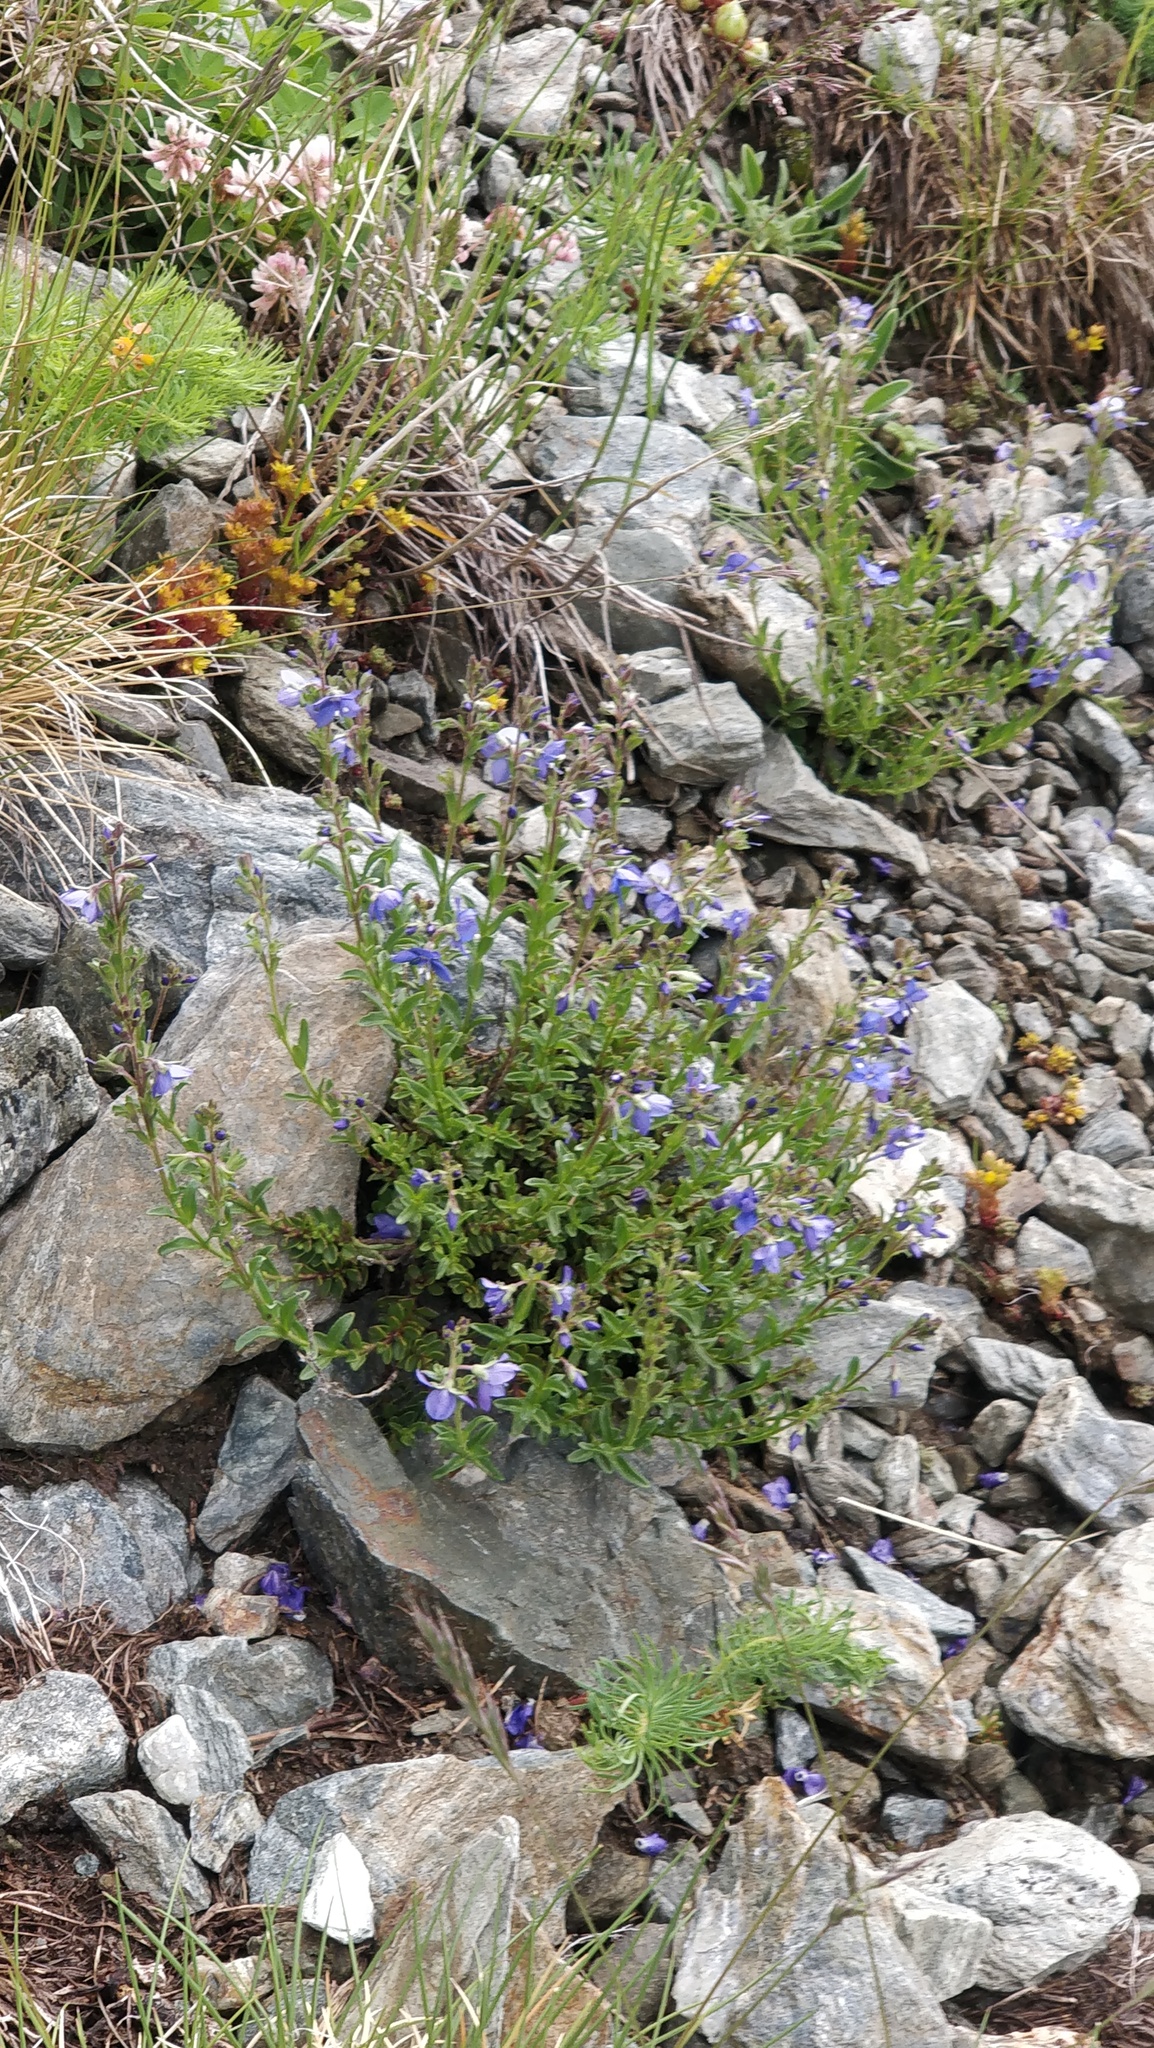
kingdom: Plantae
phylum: Tracheophyta
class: Magnoliopsida
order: Lamiales
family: Plantaginaceae
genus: Veronica
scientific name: Veronica fruticans
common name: Rock speedwell
